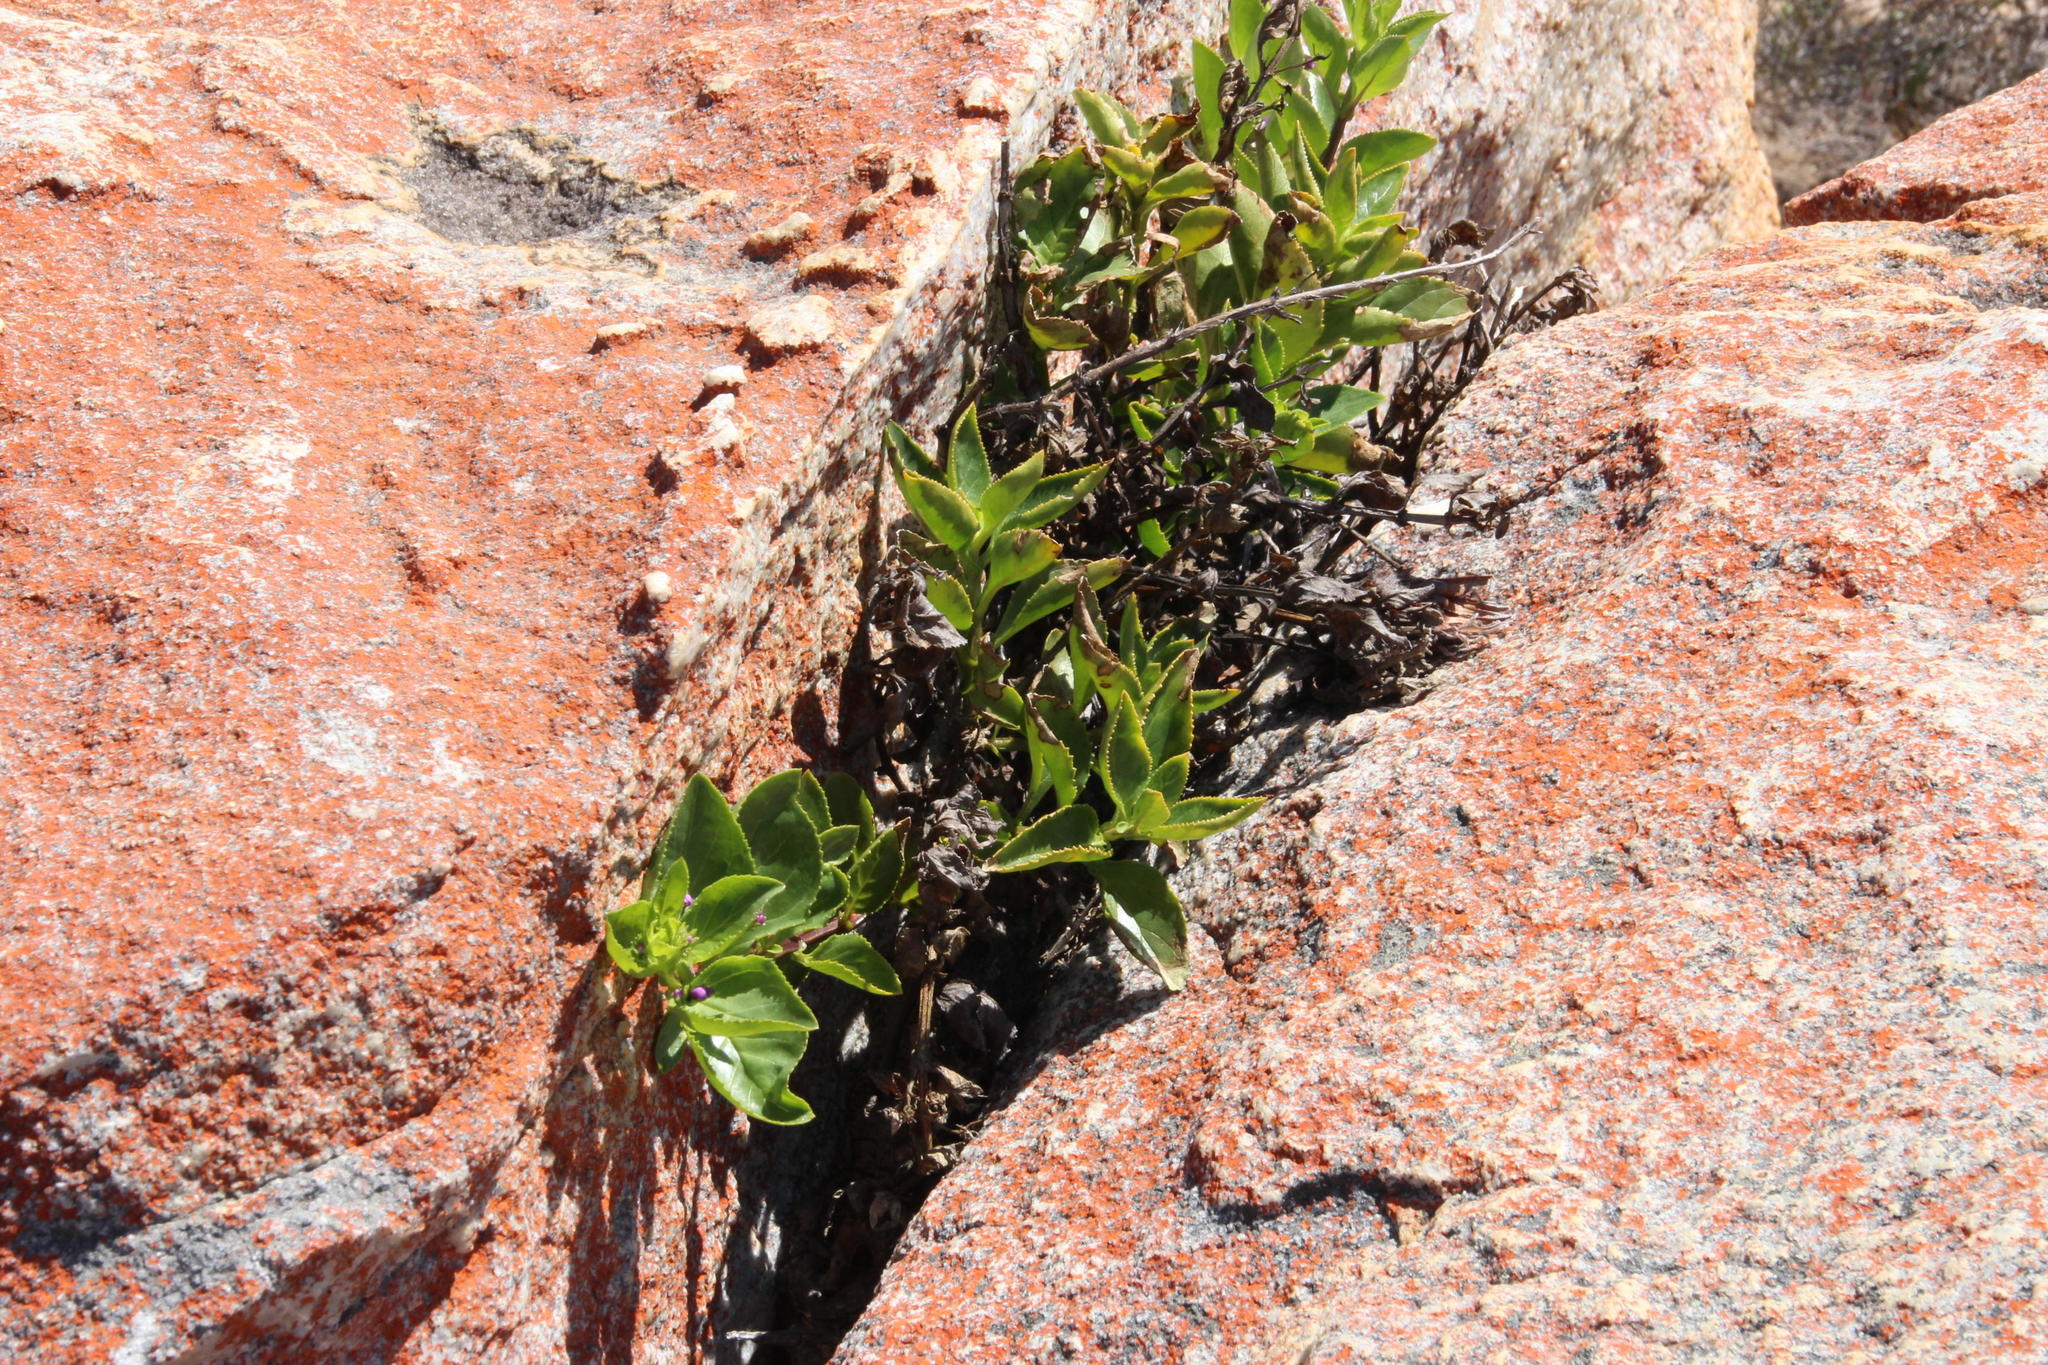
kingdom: Plantae
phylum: Tracheophyta
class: Magnoliopsida
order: Lamiales
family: Scrophulariaceae
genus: Teedia
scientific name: Teedia lucida
